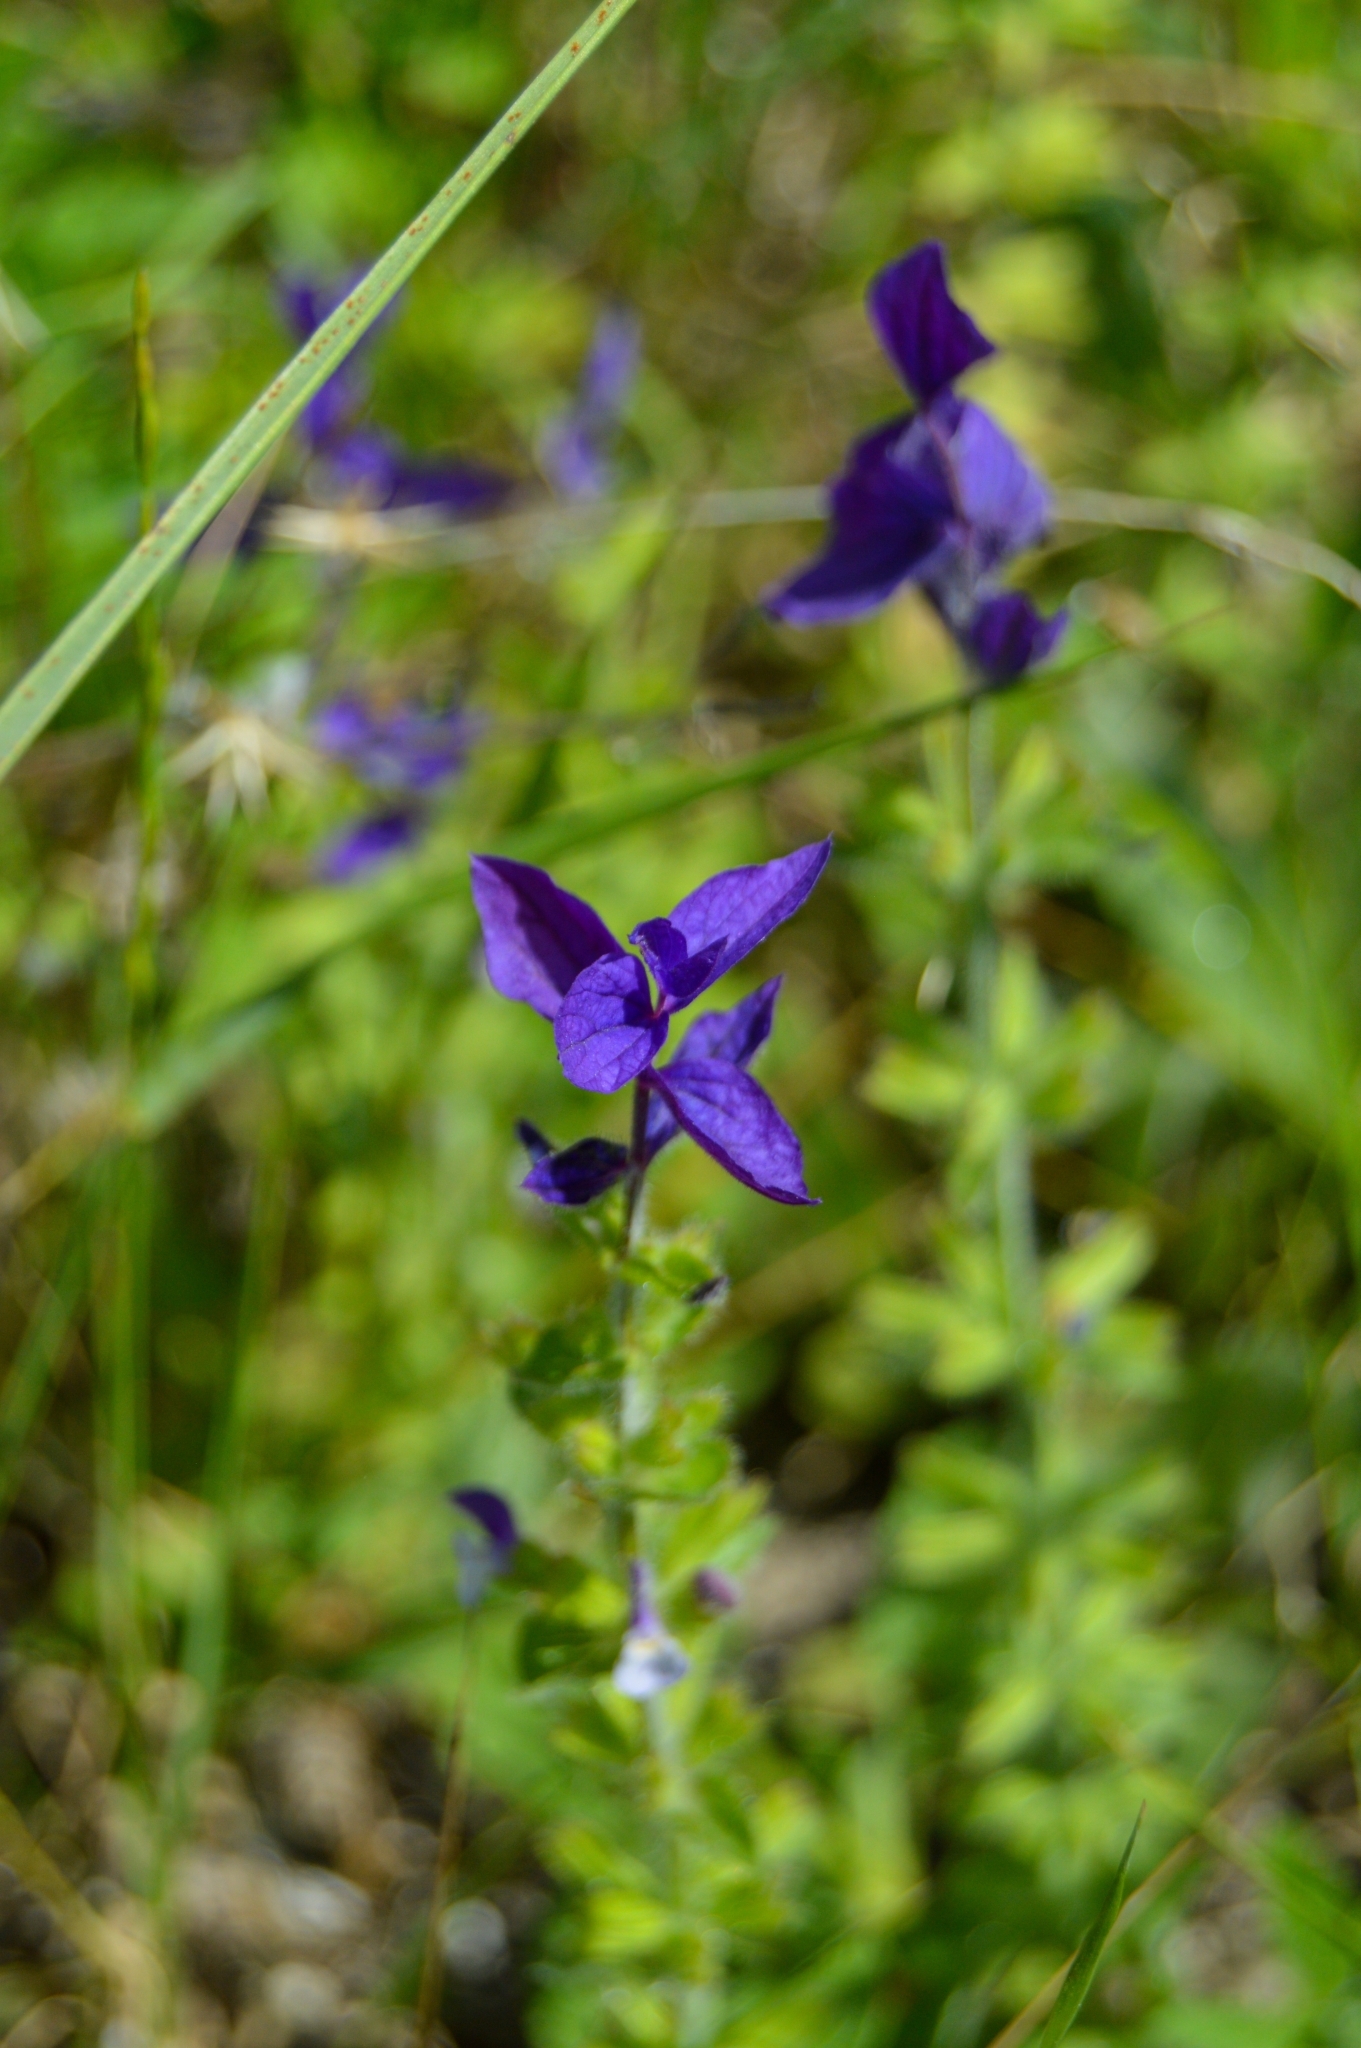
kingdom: Plantae
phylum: Tracheophyta
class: Magnoliopsida
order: Lamiales
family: Lamiaceae
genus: Salvia
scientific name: Salvia viridis
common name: Annual clary
